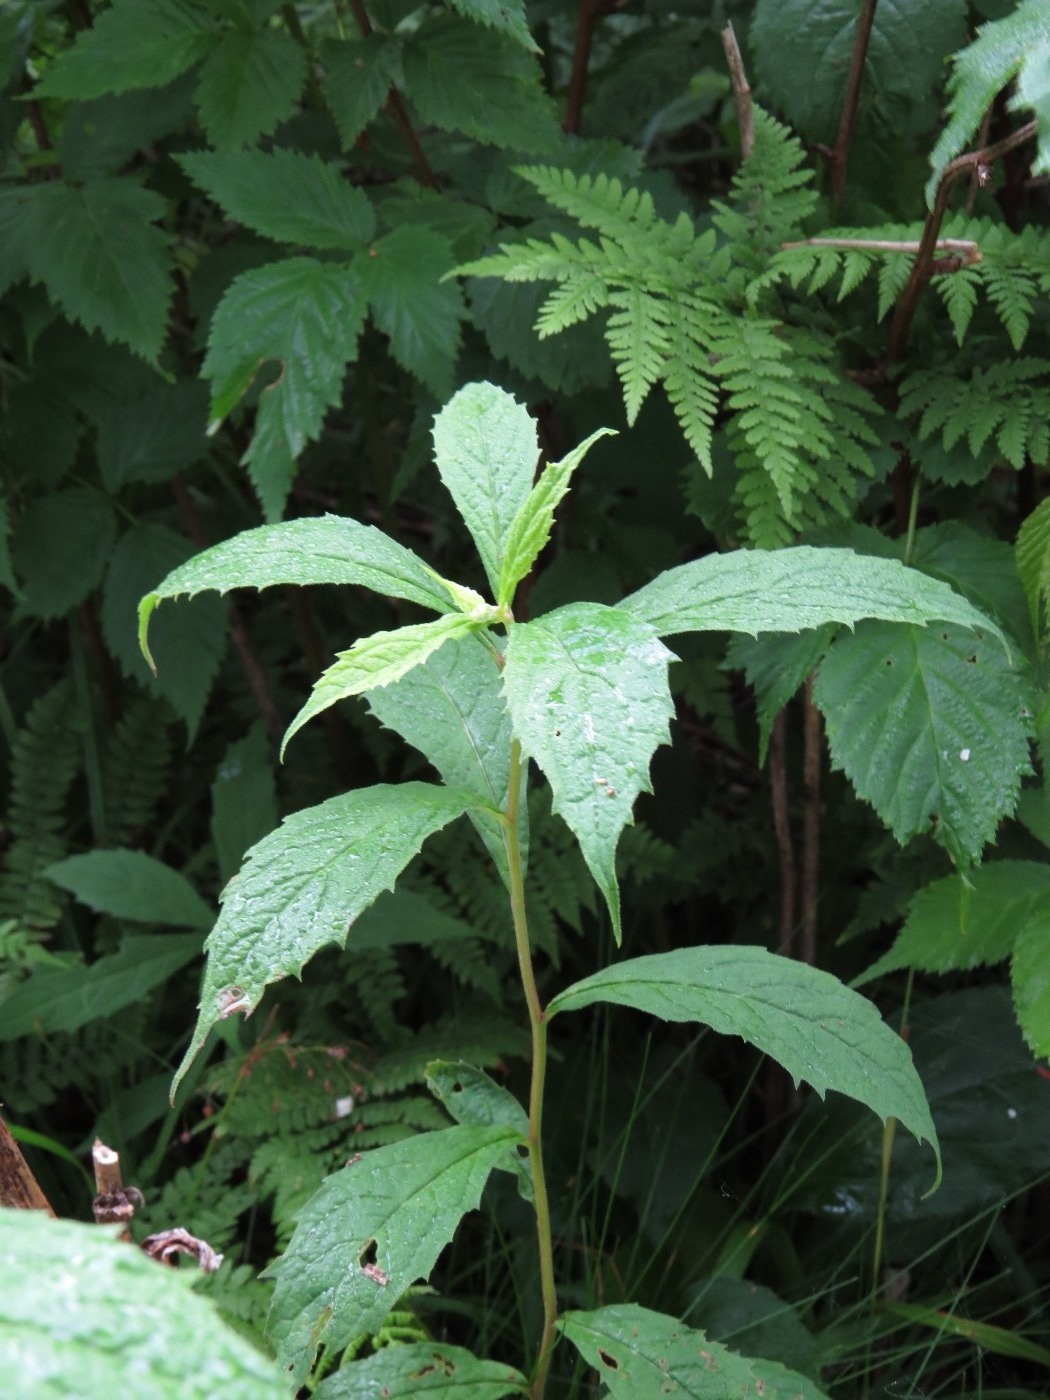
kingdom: Plantae
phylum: Tracheophyta
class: Magnoliopsida
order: Asterales
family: Asteraceae
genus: Oclemena
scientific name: Oclemena acuminata
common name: Mountain aster
